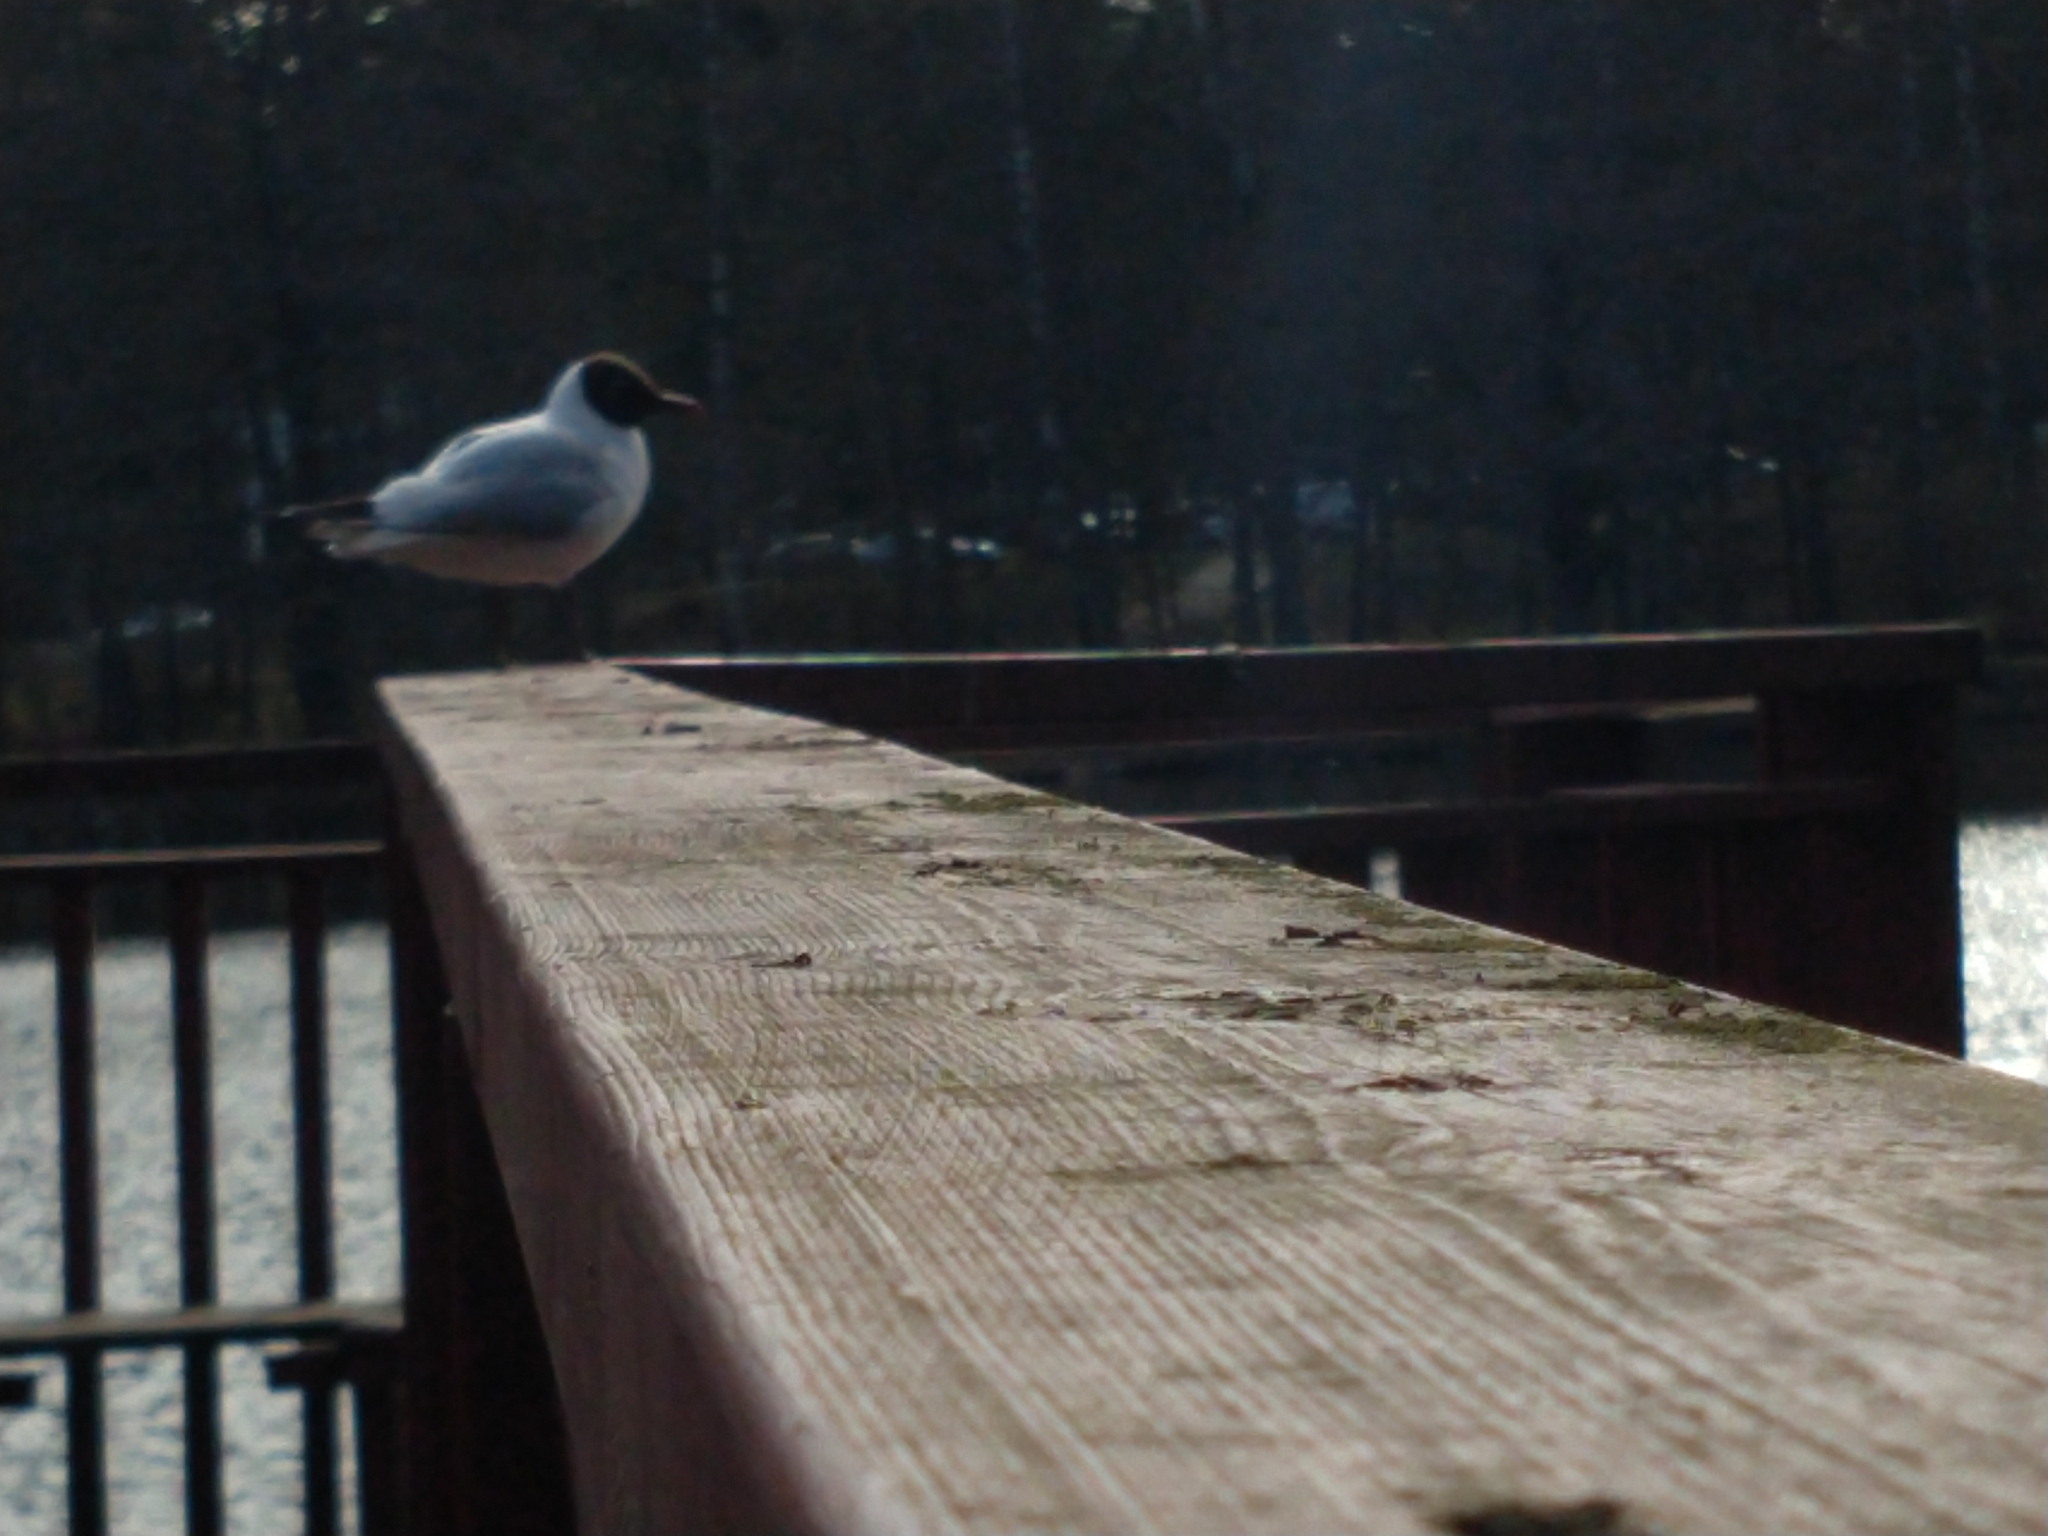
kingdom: Animalia
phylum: Chordata
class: Aves
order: Charadriiformes
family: Laridae
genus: Chroicocephalus
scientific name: Chroicocephalus ridibundus
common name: Black-headed gull
